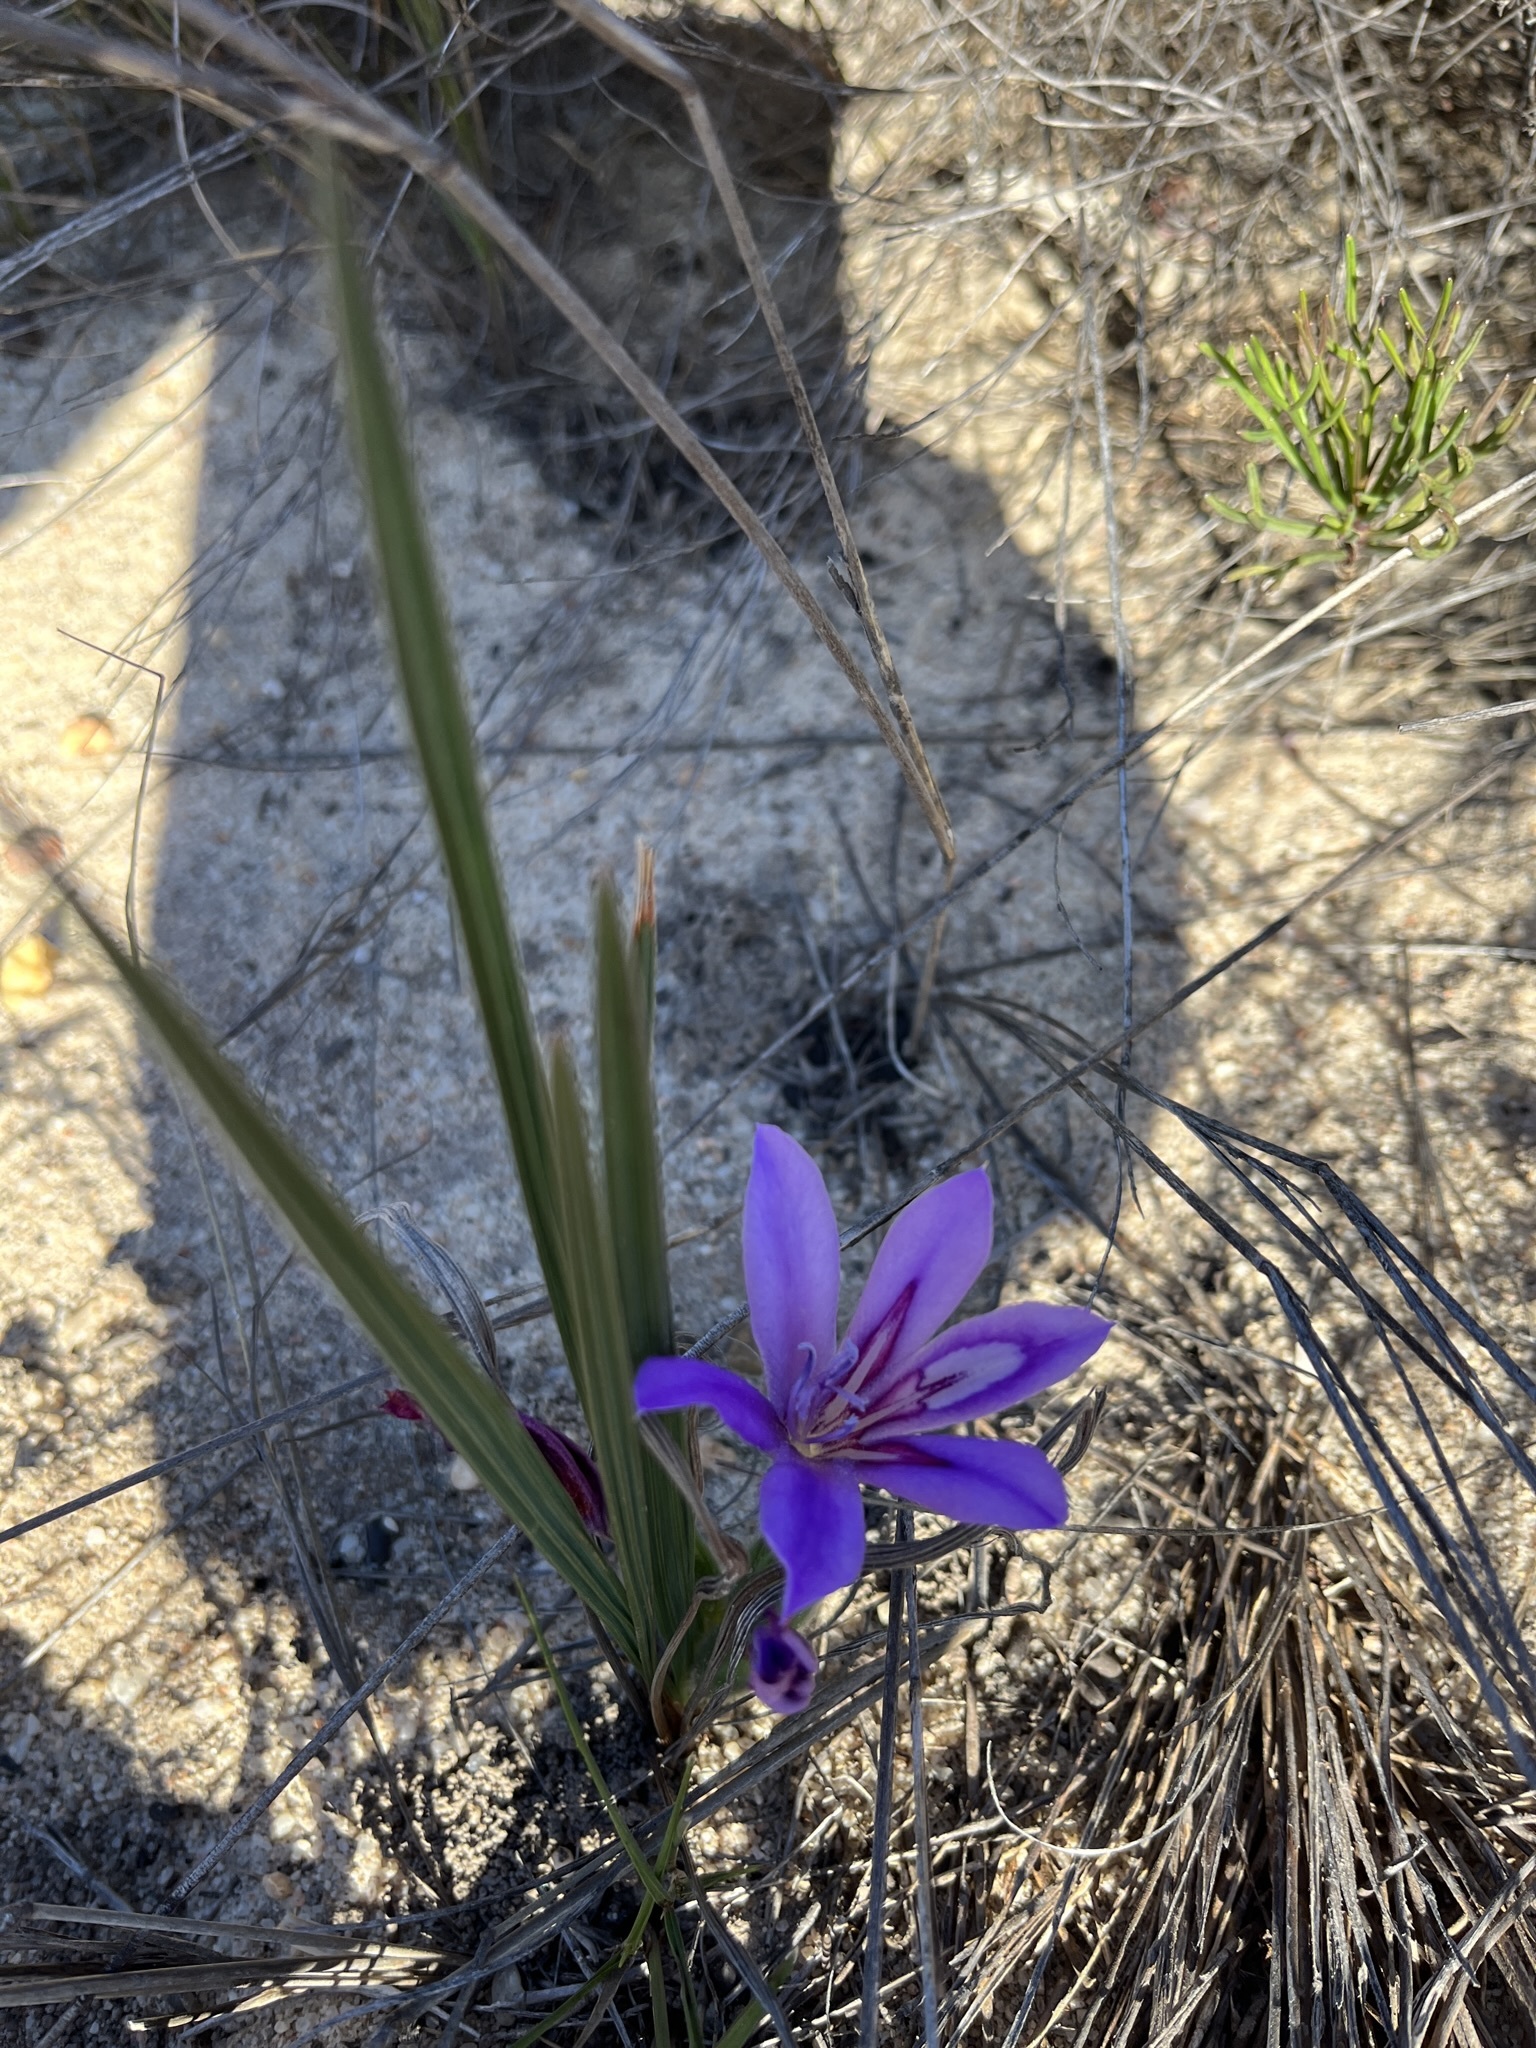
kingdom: Plantae
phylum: Tracheophyta
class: Liliopsida
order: Asparagales
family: Iridaceae
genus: Babiana
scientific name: Babiana sambucina
